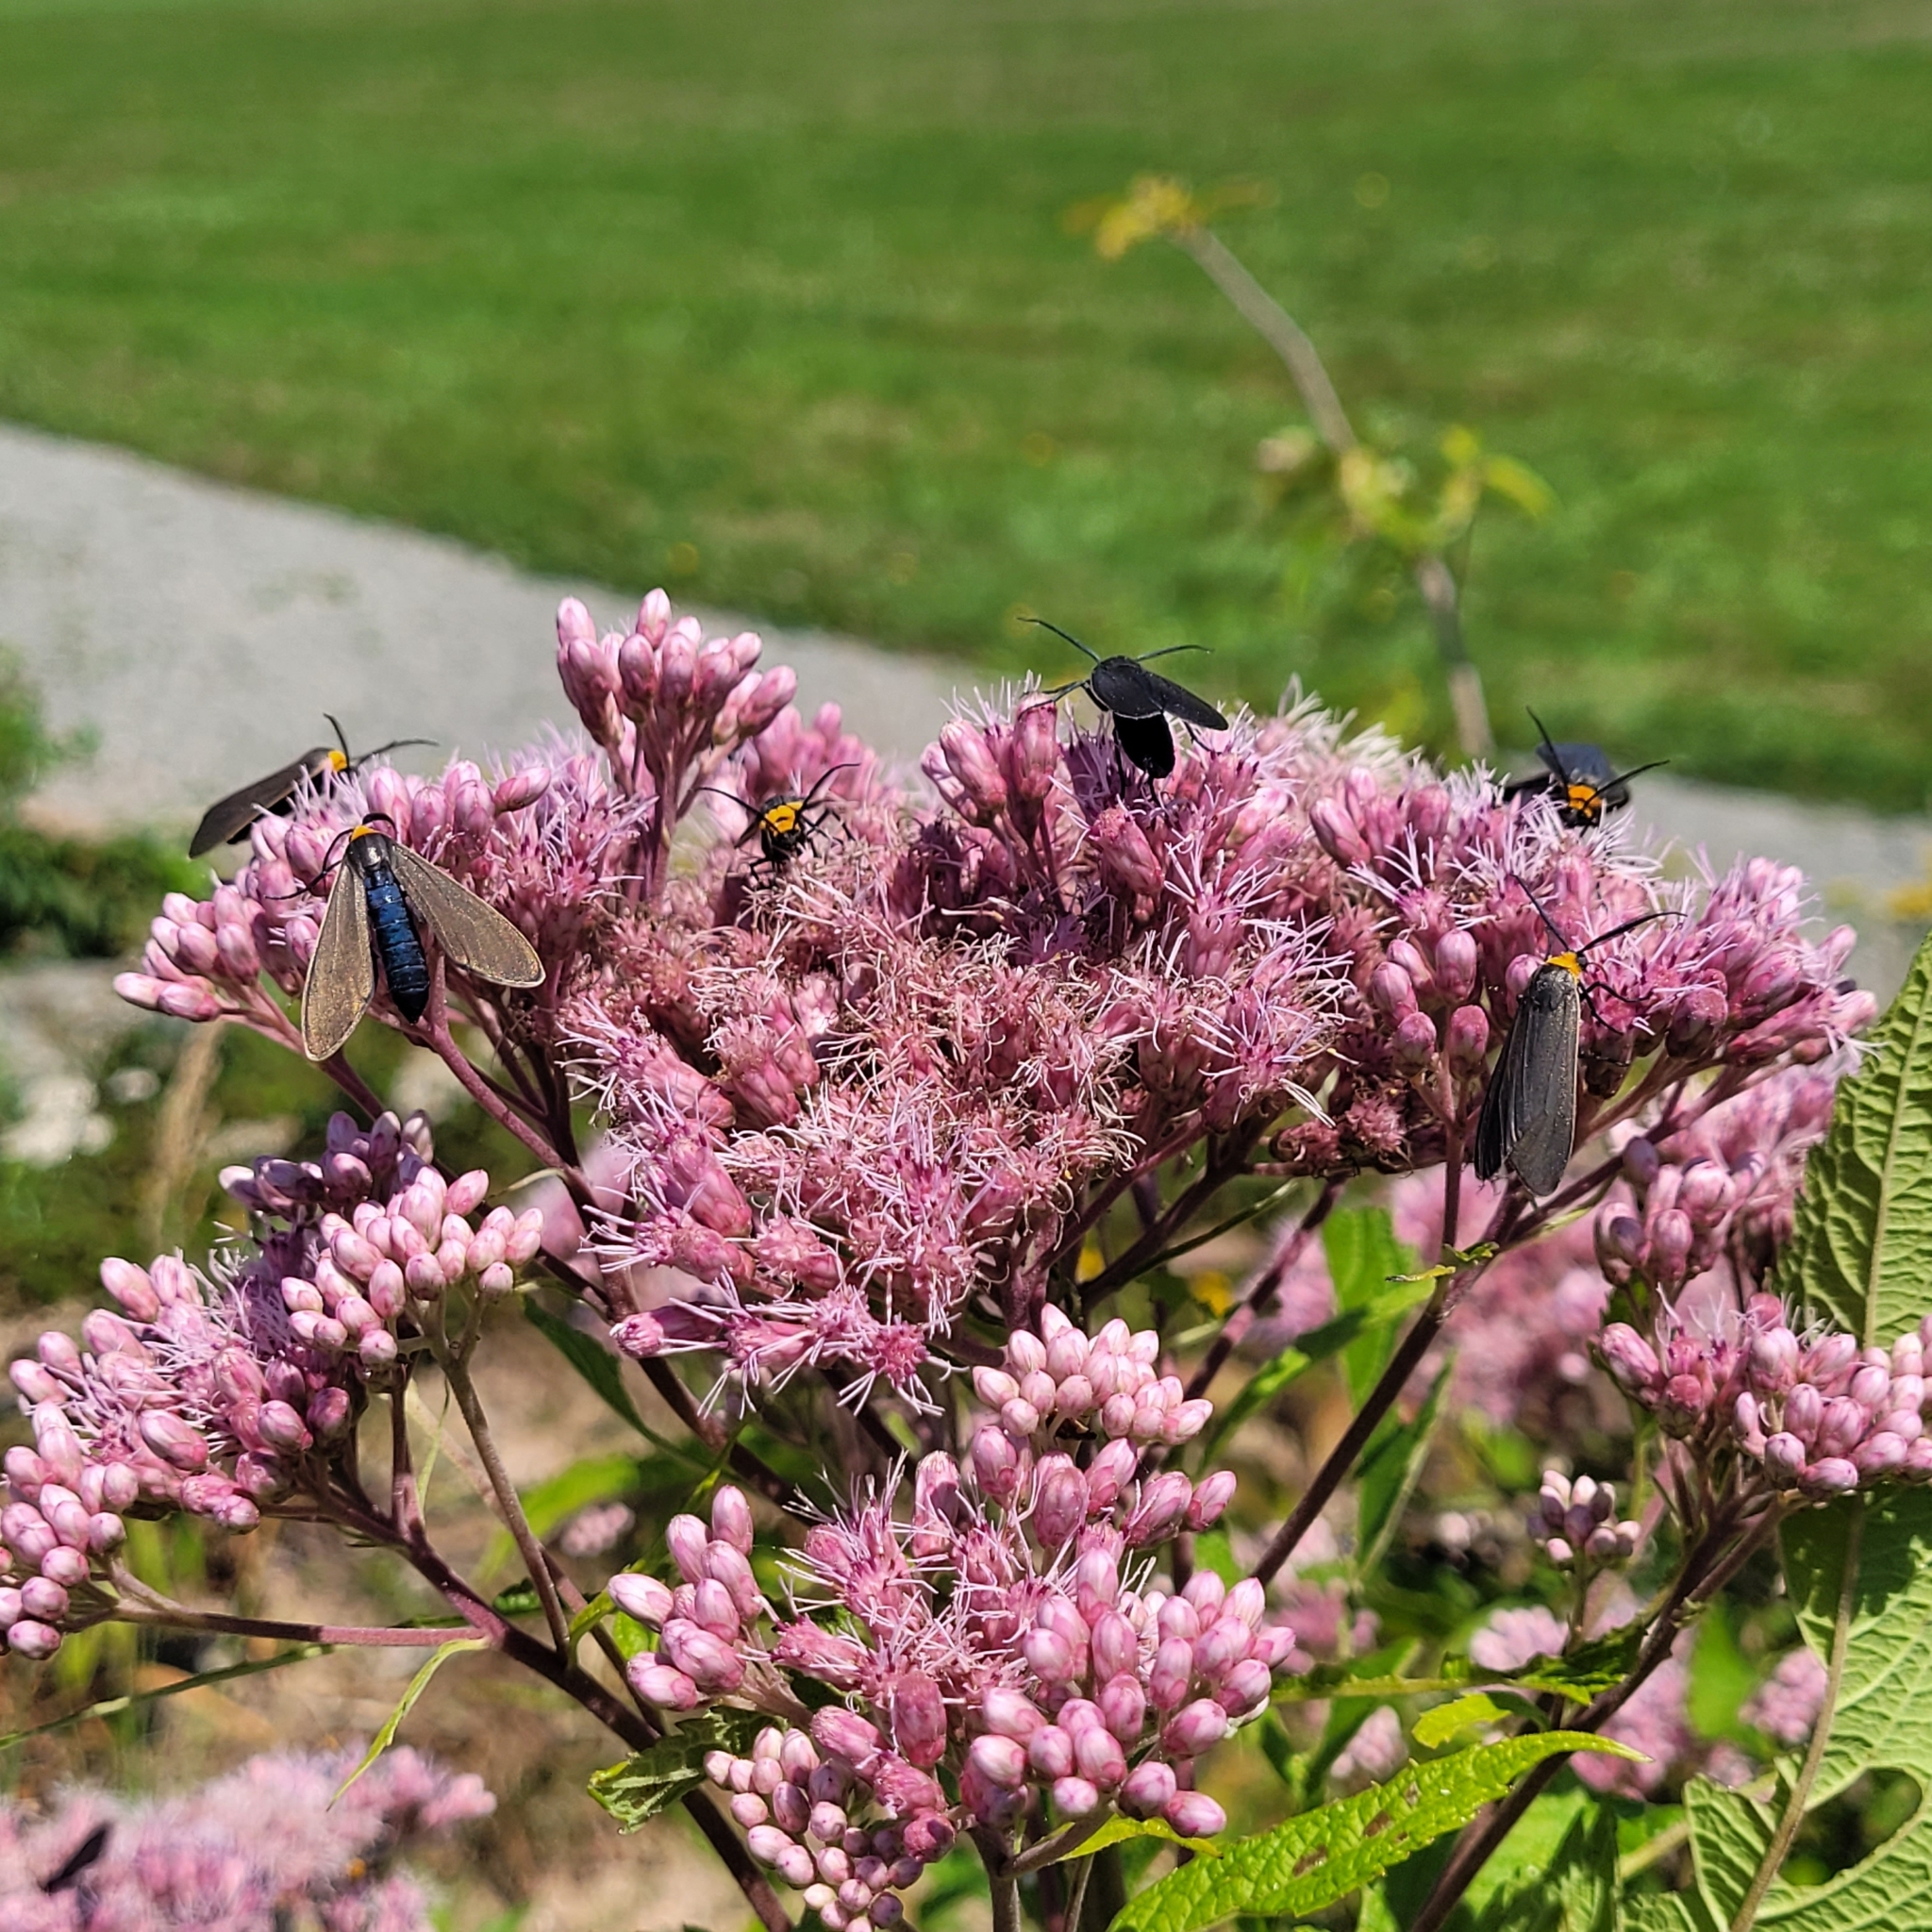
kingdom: Animalia
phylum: Arthropoda
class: Insecta
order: Lepidoptera
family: Erebidae
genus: Cisseps
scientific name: Cisseps fulvicollis
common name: Yellow-collared scape moth
